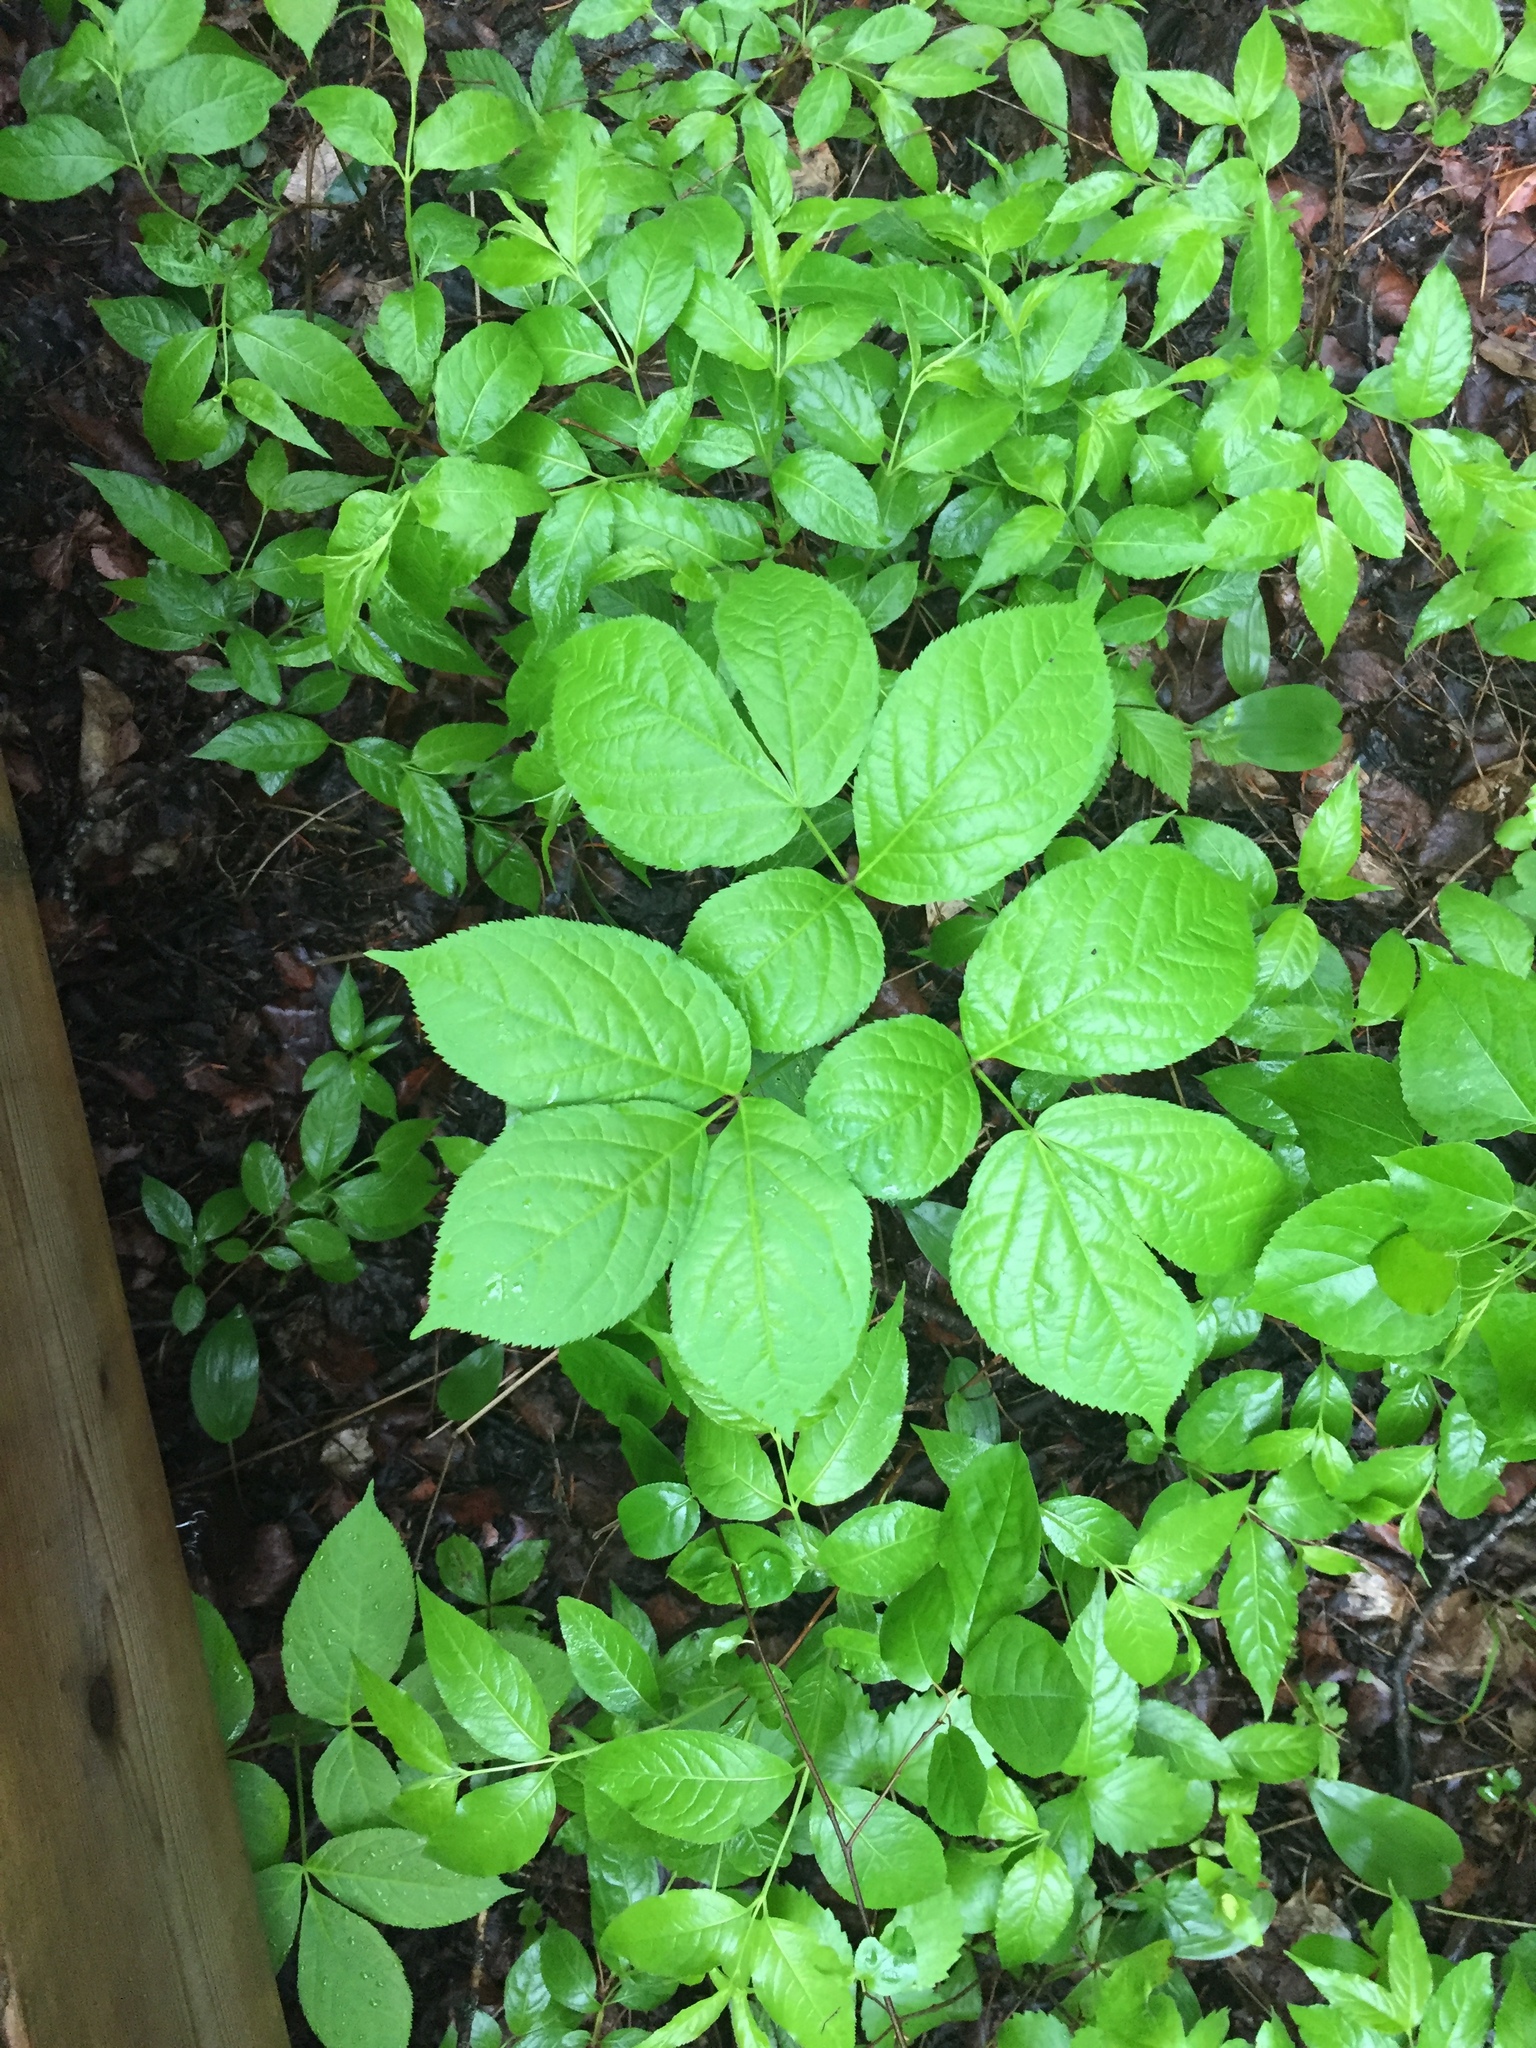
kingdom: Plantae
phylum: Tracheophyta
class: Magnoliopsida
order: Apiales
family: Araliaceae
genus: Aralia
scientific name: Aralia nudicaulis
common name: Wild sarsaparilla
